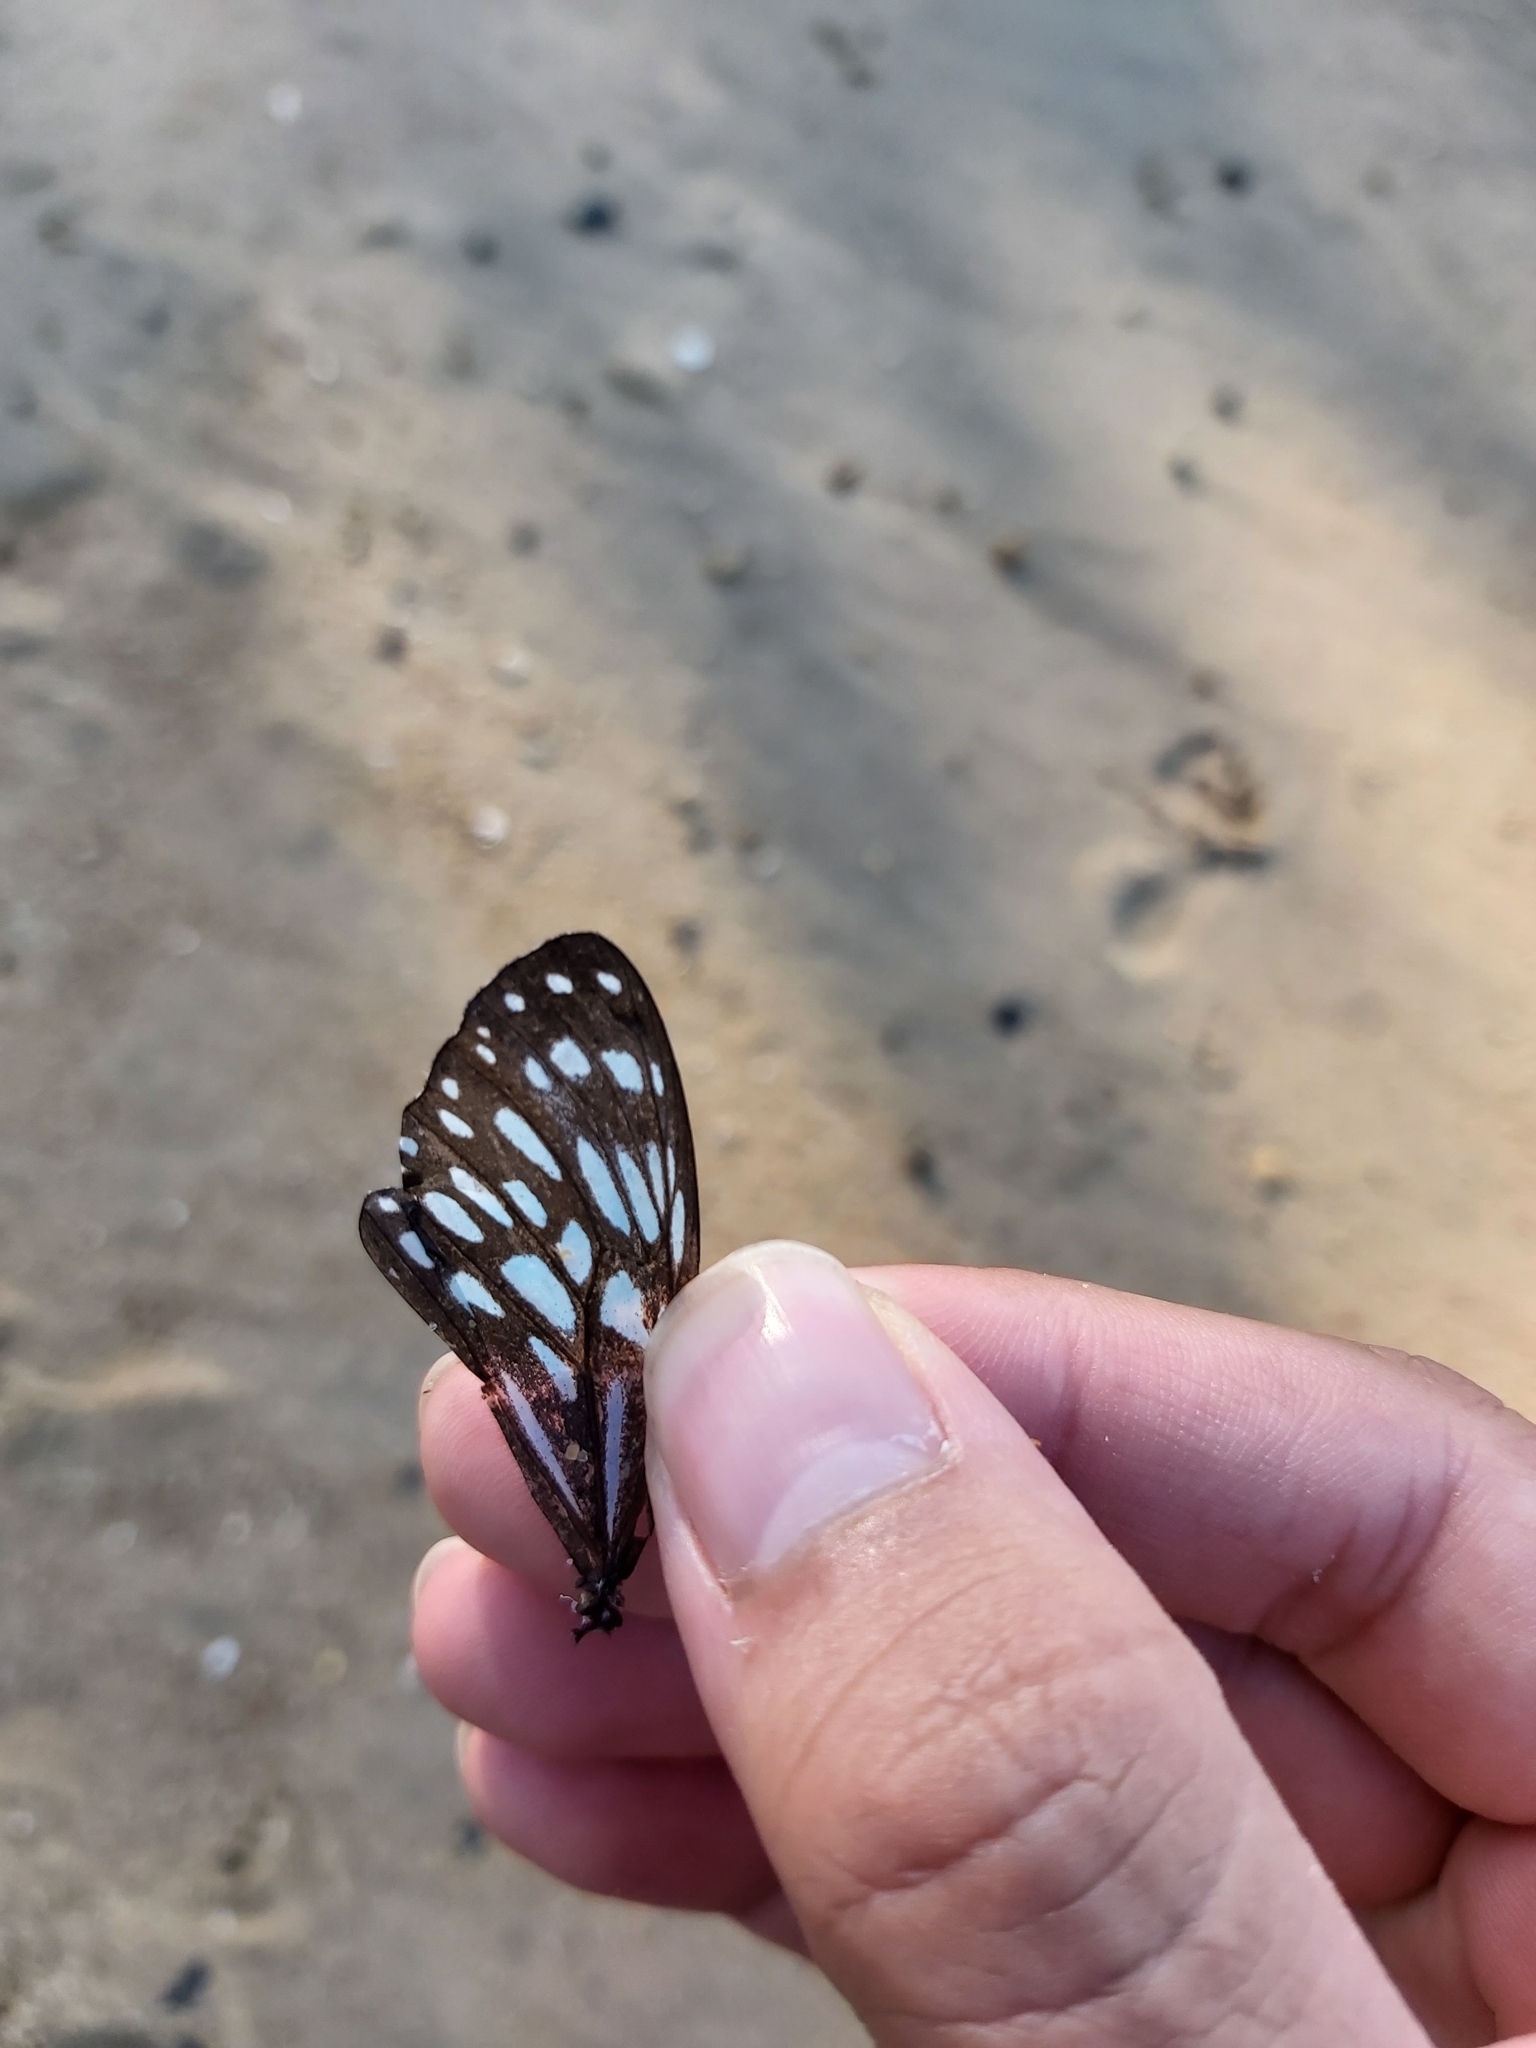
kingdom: Animalia
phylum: Arthropoda
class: Insecta
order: Lepidoptera
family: Nymphalidae
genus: Tirumala
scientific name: Tirumala hamata
